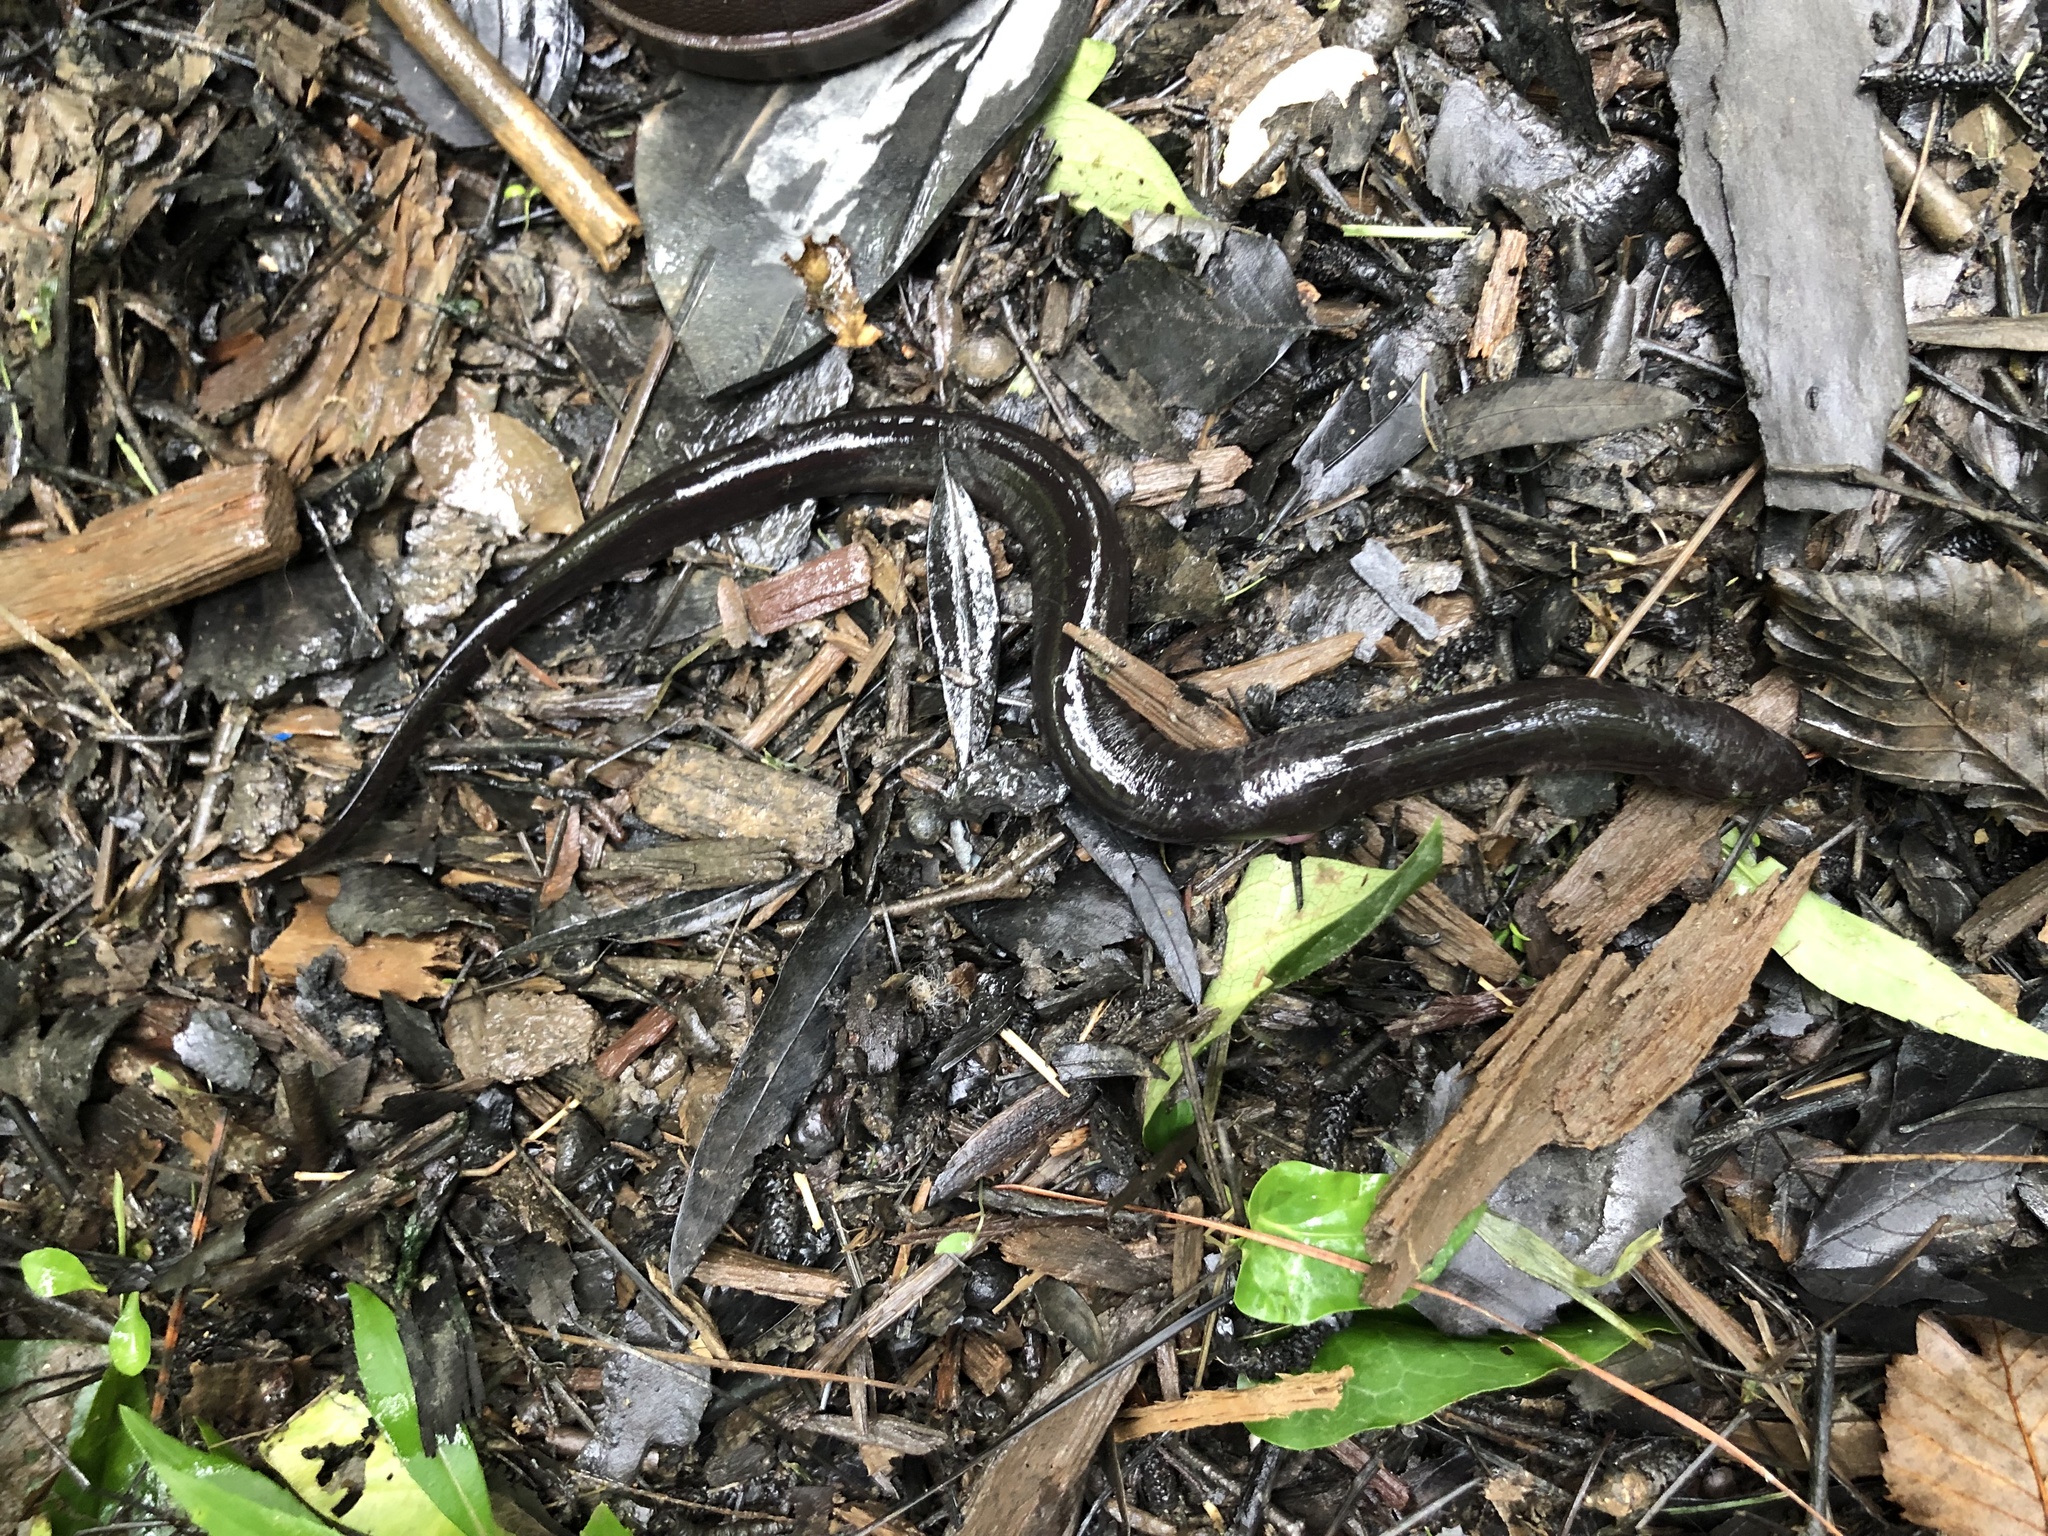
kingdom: Animalia
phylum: Chordata
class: Amphibia
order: Caudata
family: Amphiumidae
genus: Amphiuma
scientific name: Amphiuma means
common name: Two-toed amphiuma
